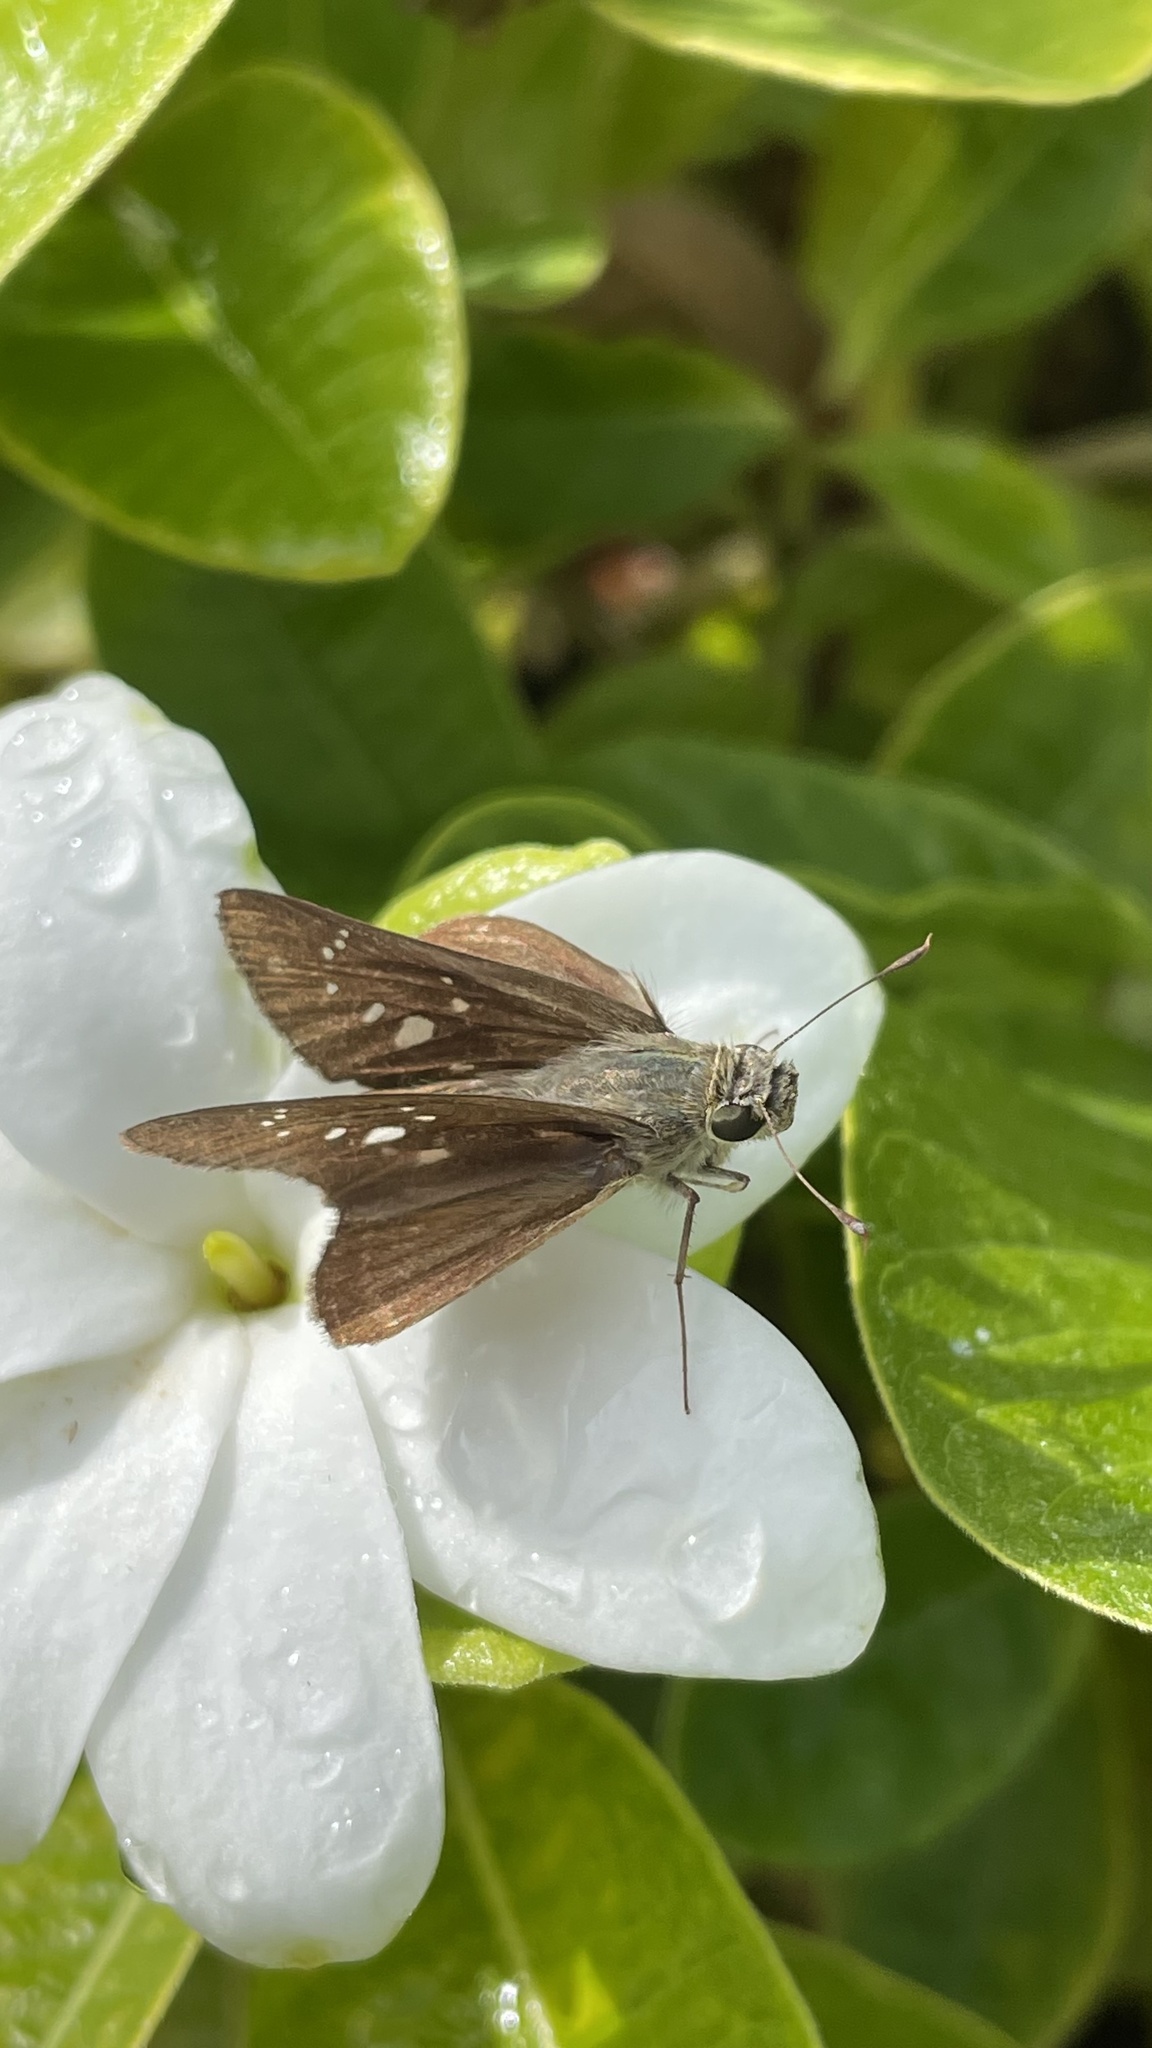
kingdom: Animalia
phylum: Arthropoda
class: Insecta
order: Lepidoptera
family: Hesperiidae
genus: Pelopidas
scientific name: Pelopidas agna
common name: Little branded swift
